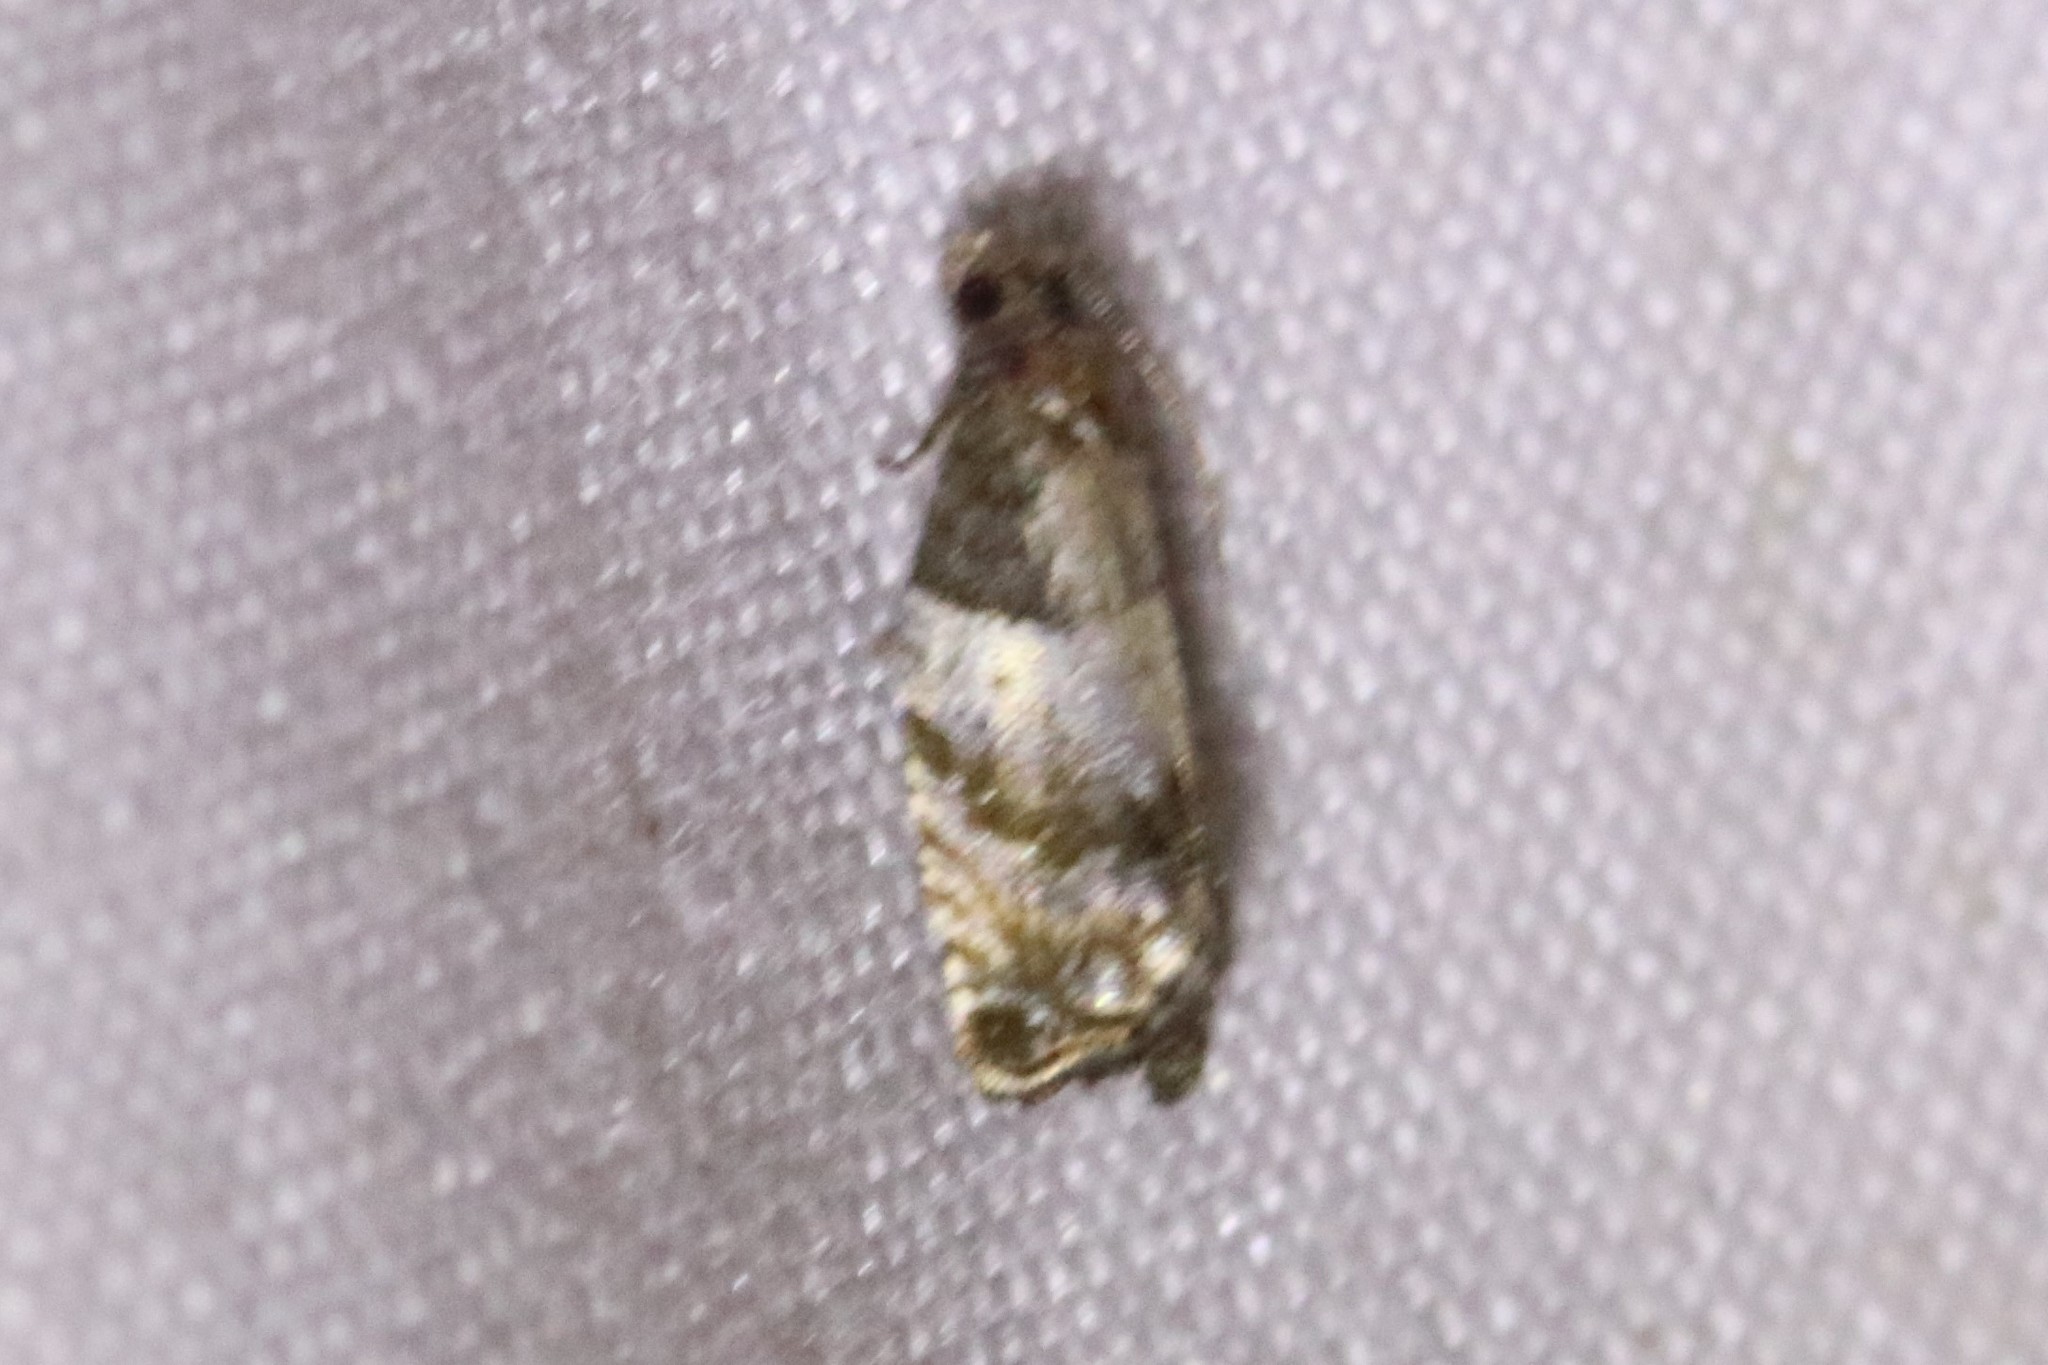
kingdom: Animalia
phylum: Arthropoda
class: Insecta
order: Lepidoptera
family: Tortricidae
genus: Gypsonoma
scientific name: Gypsonoma substitutionis
